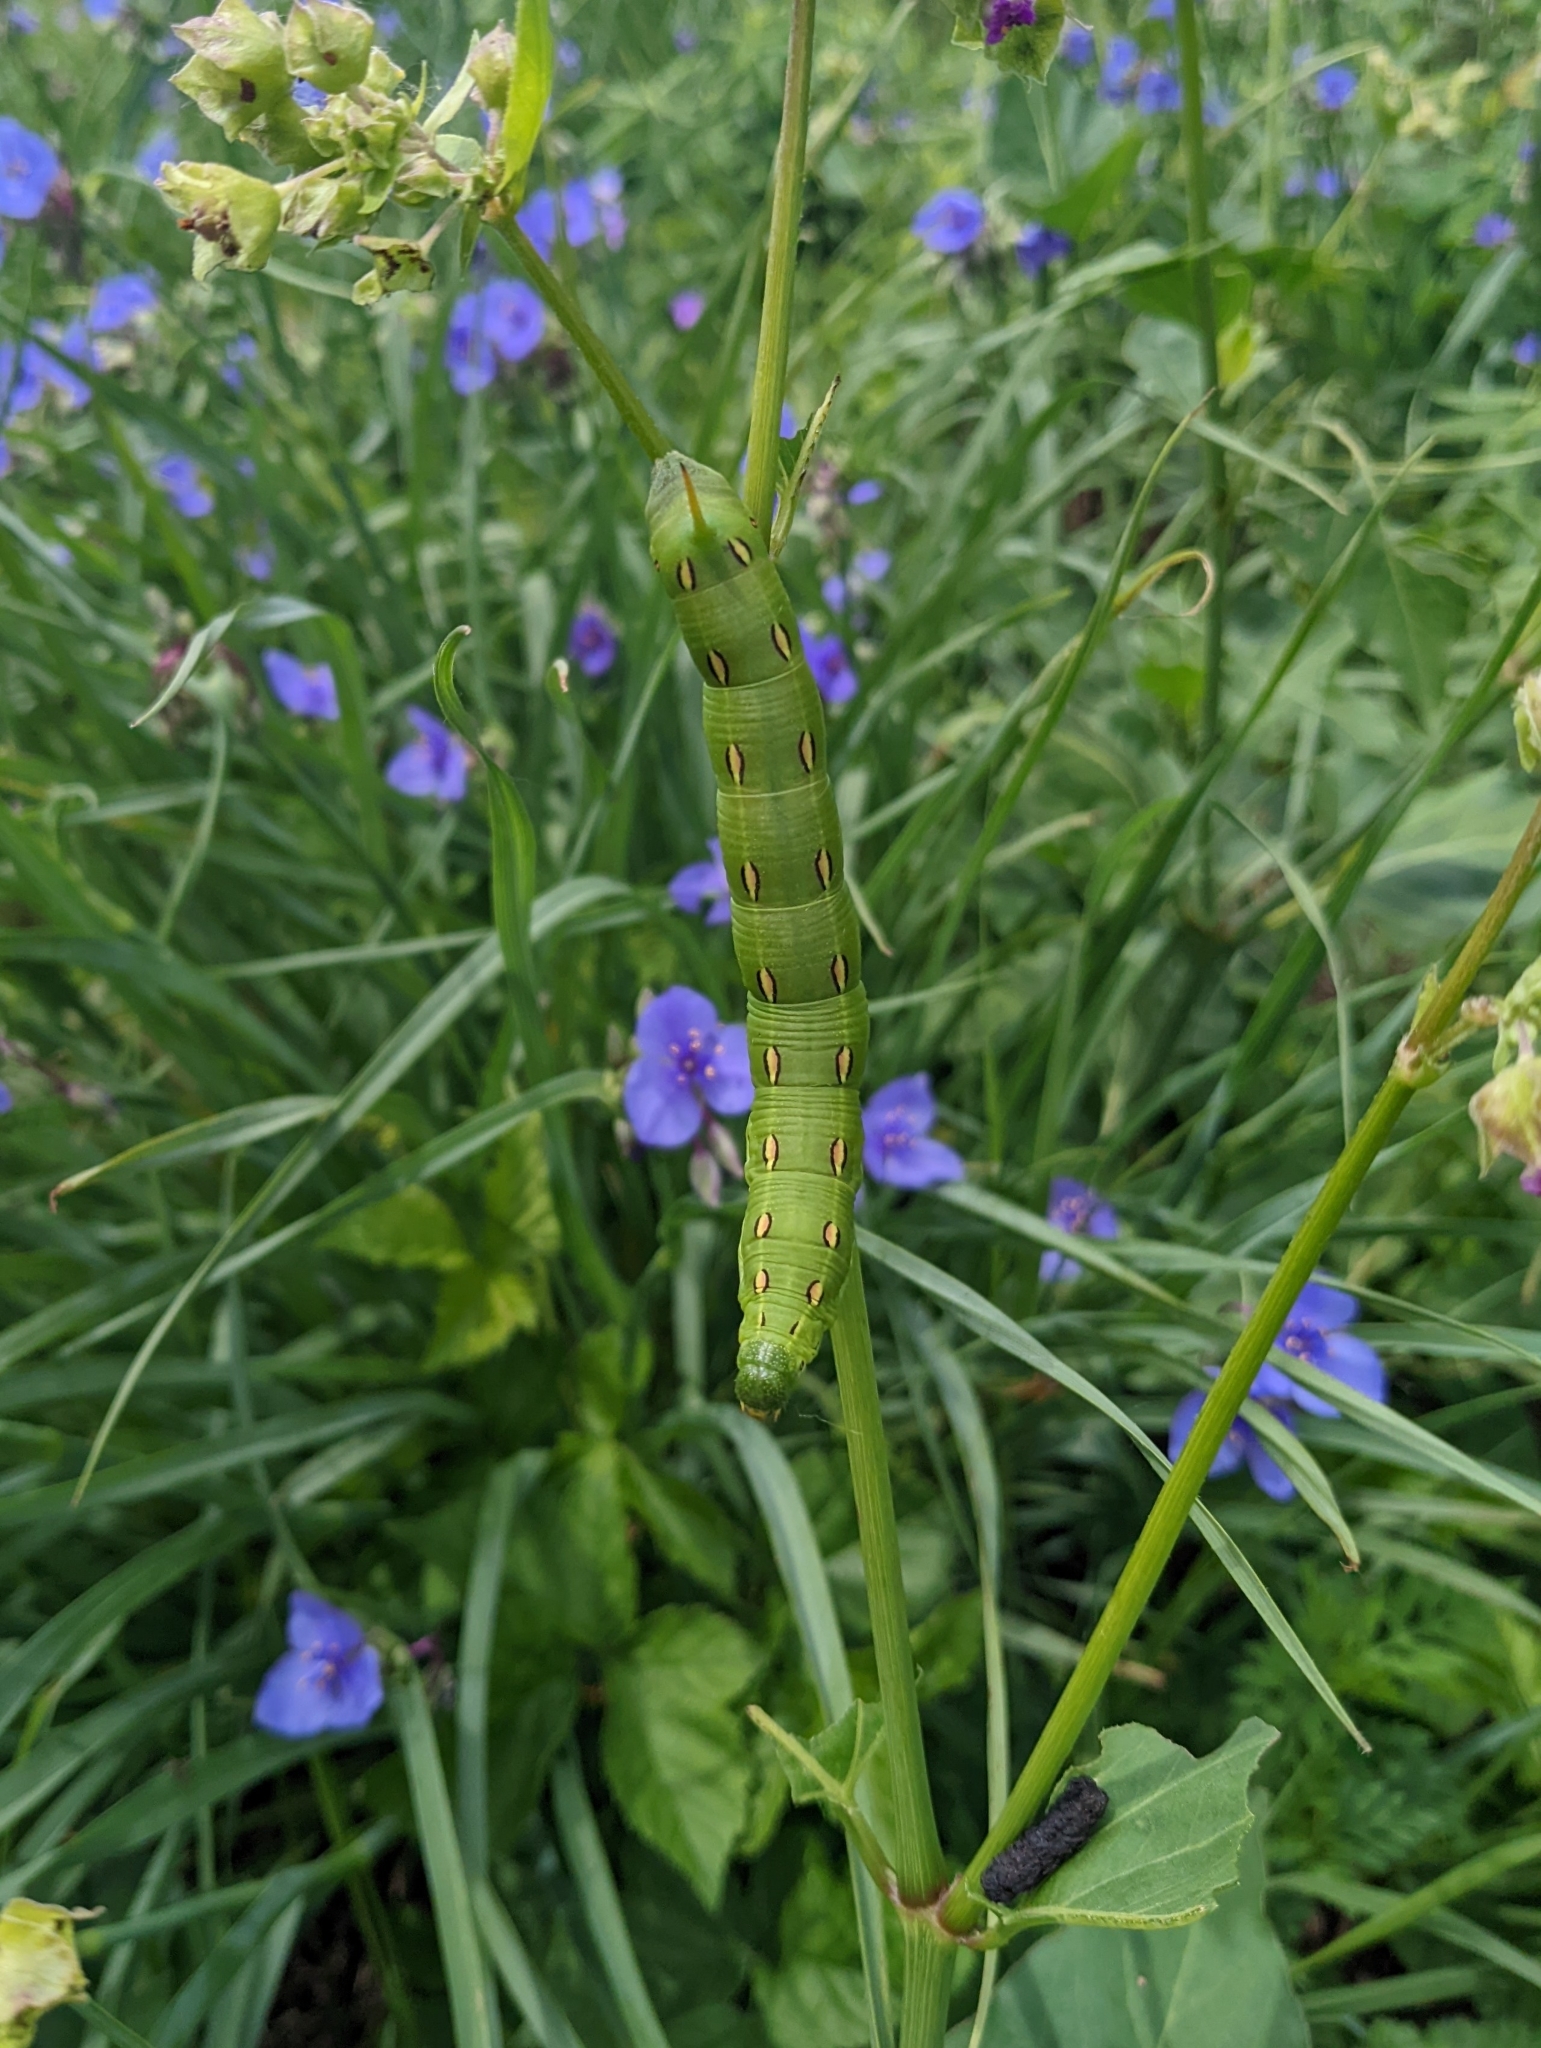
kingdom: Animalia
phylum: Arthropoda
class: Insecta
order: Lepidoptera
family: Sphingidae
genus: Hyles
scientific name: Hyles lineata
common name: White-lined sphinx
